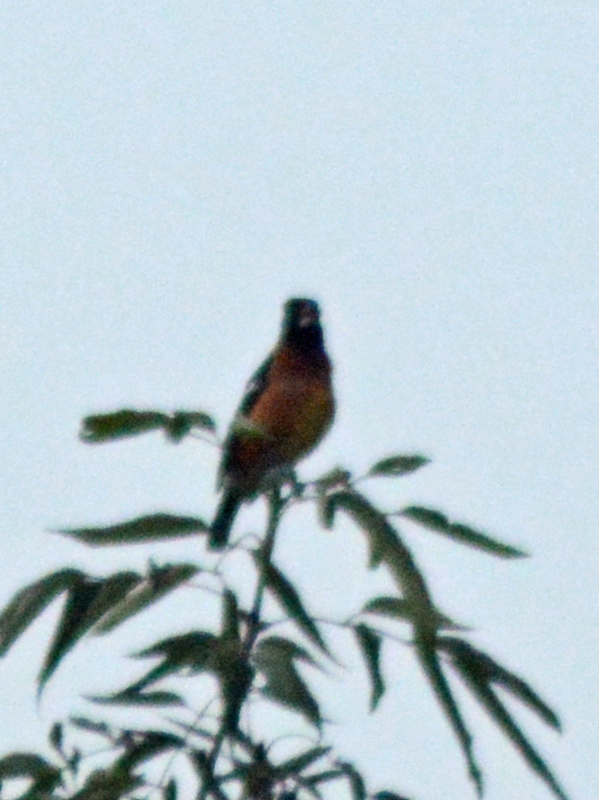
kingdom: Animalia
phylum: Chordata
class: Aves
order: Passeriformes
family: Cardinalidae
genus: Pheucticus
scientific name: Pheucticus melanocephalus
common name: Black-headed grosbeak
